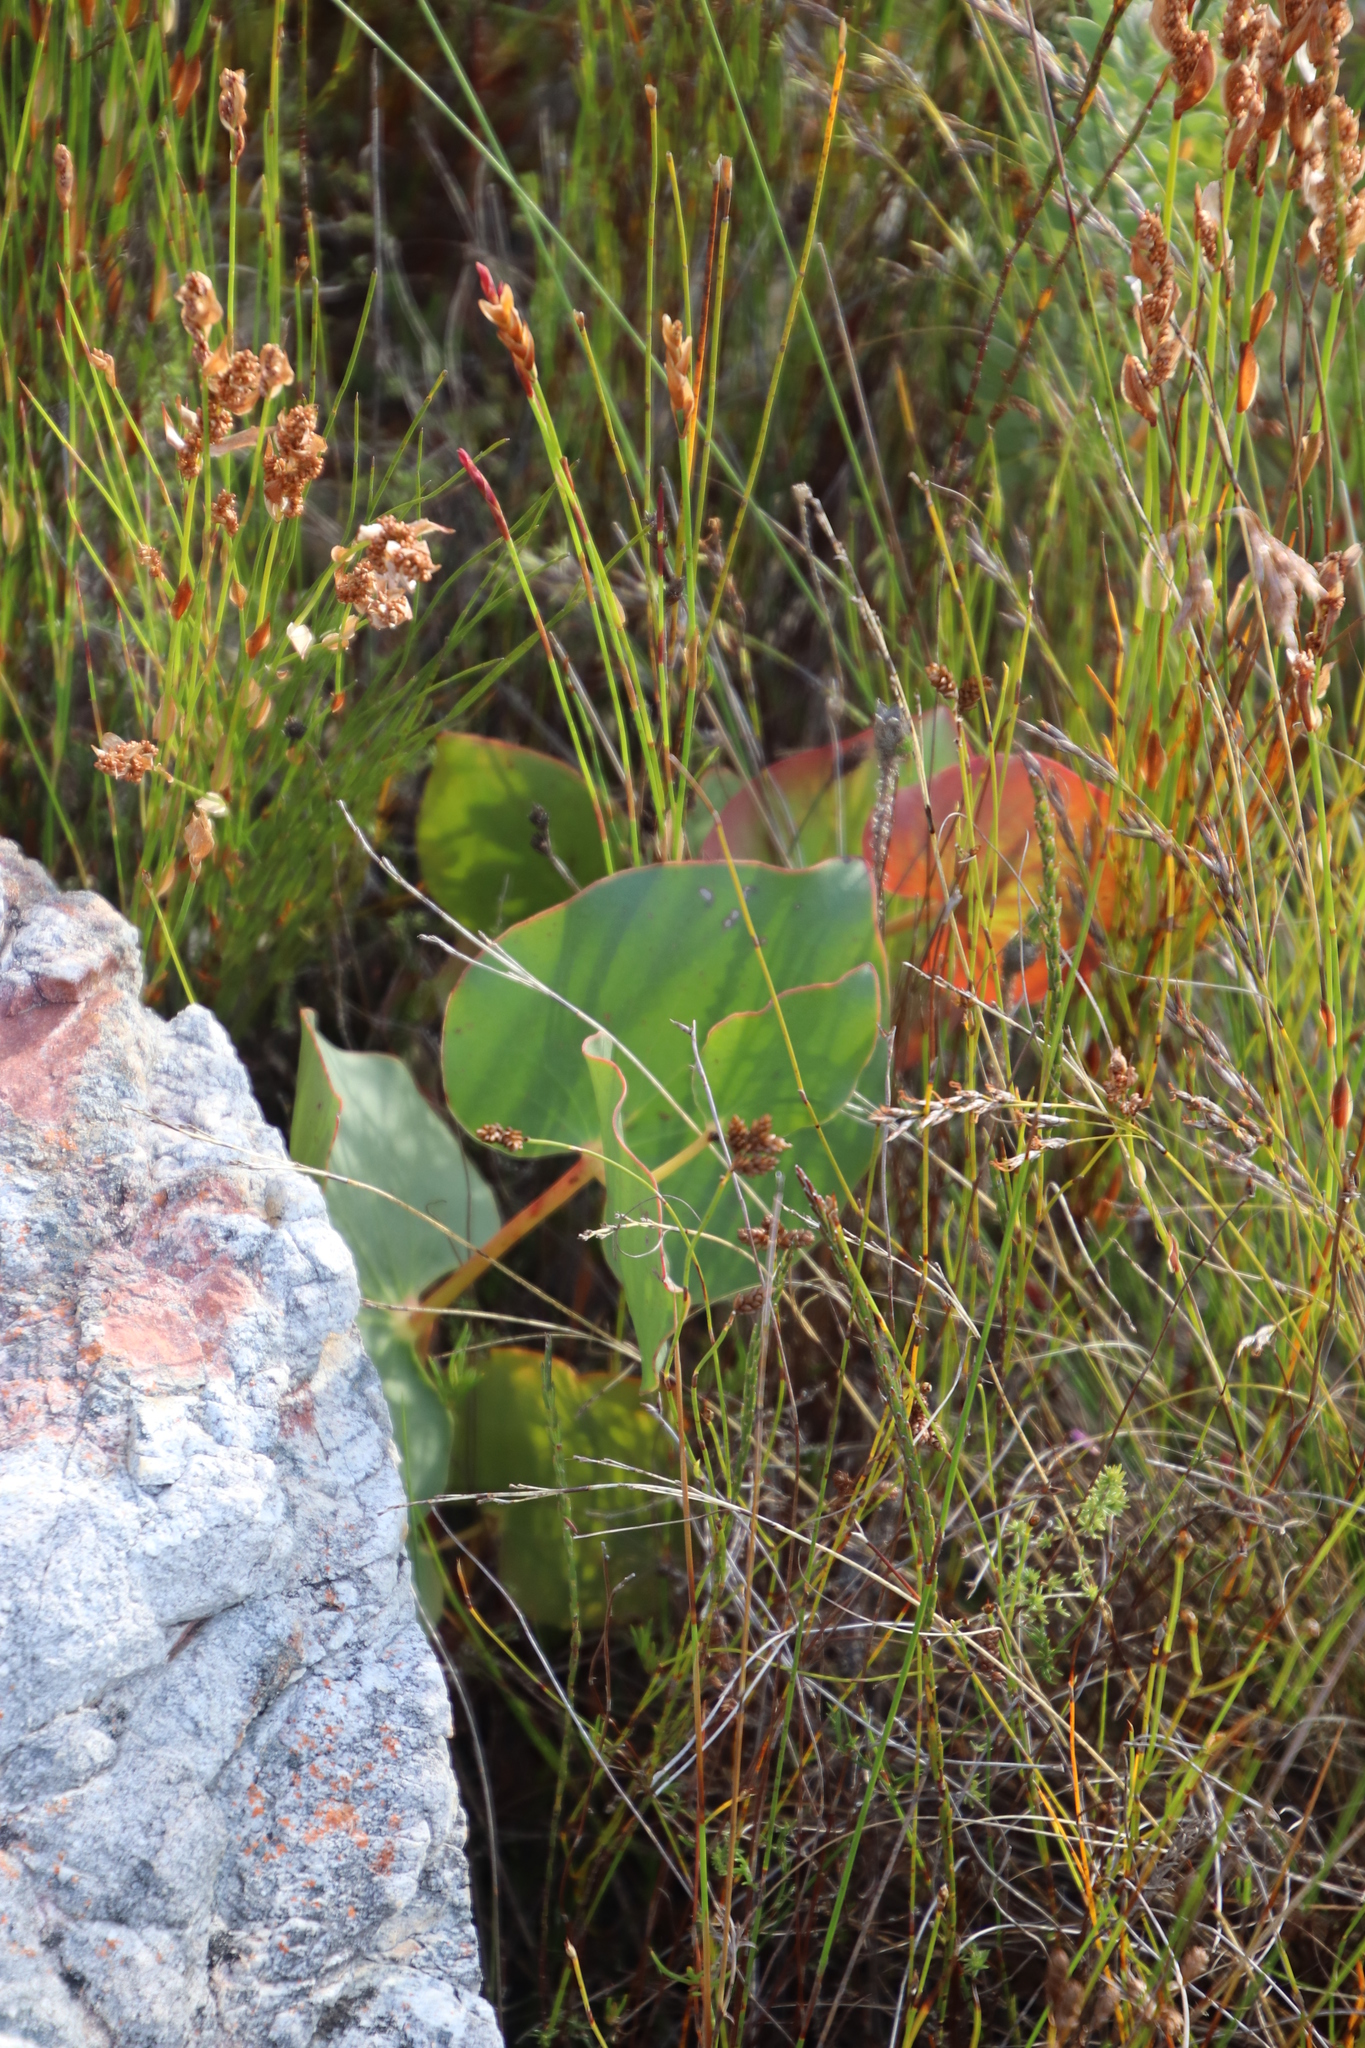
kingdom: Plantae
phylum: Tracheophyta
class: Magnoliopsida
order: Proteales
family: Proteaceae
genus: Protea
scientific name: Protea cordata
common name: Heart-leaf sugarbush
